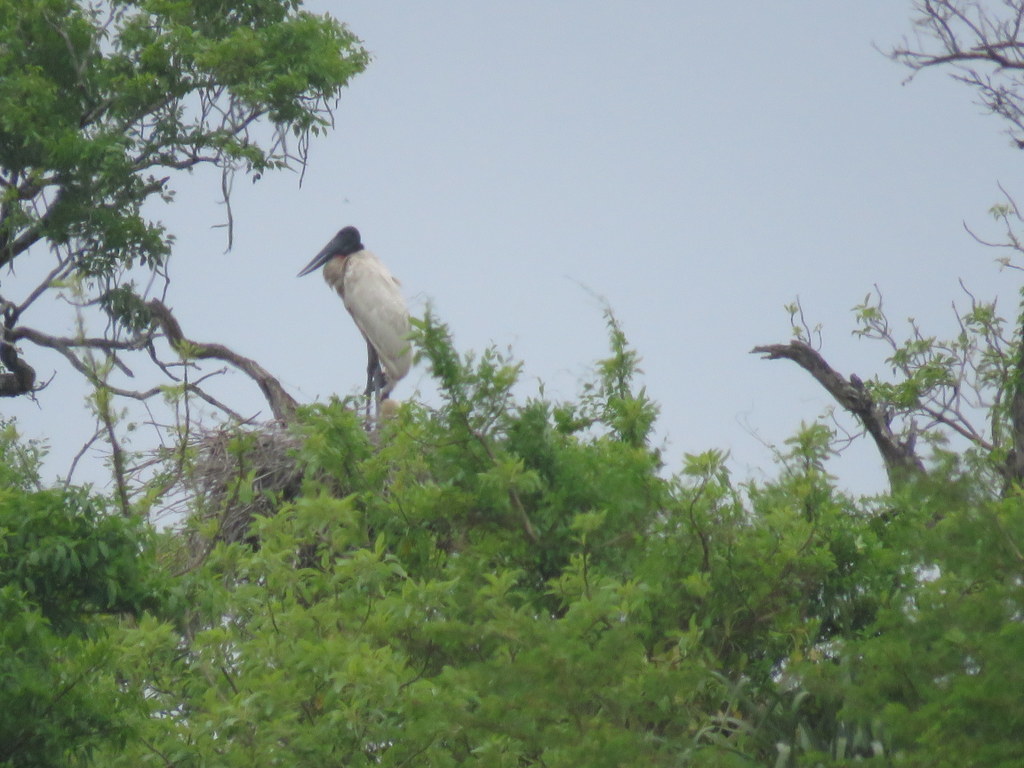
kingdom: Animalia
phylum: Chordata
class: Aves
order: Ciconiiformes
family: Ciconiidae
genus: Jabiru
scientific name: Jabiru mycteria
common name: Jabiru
